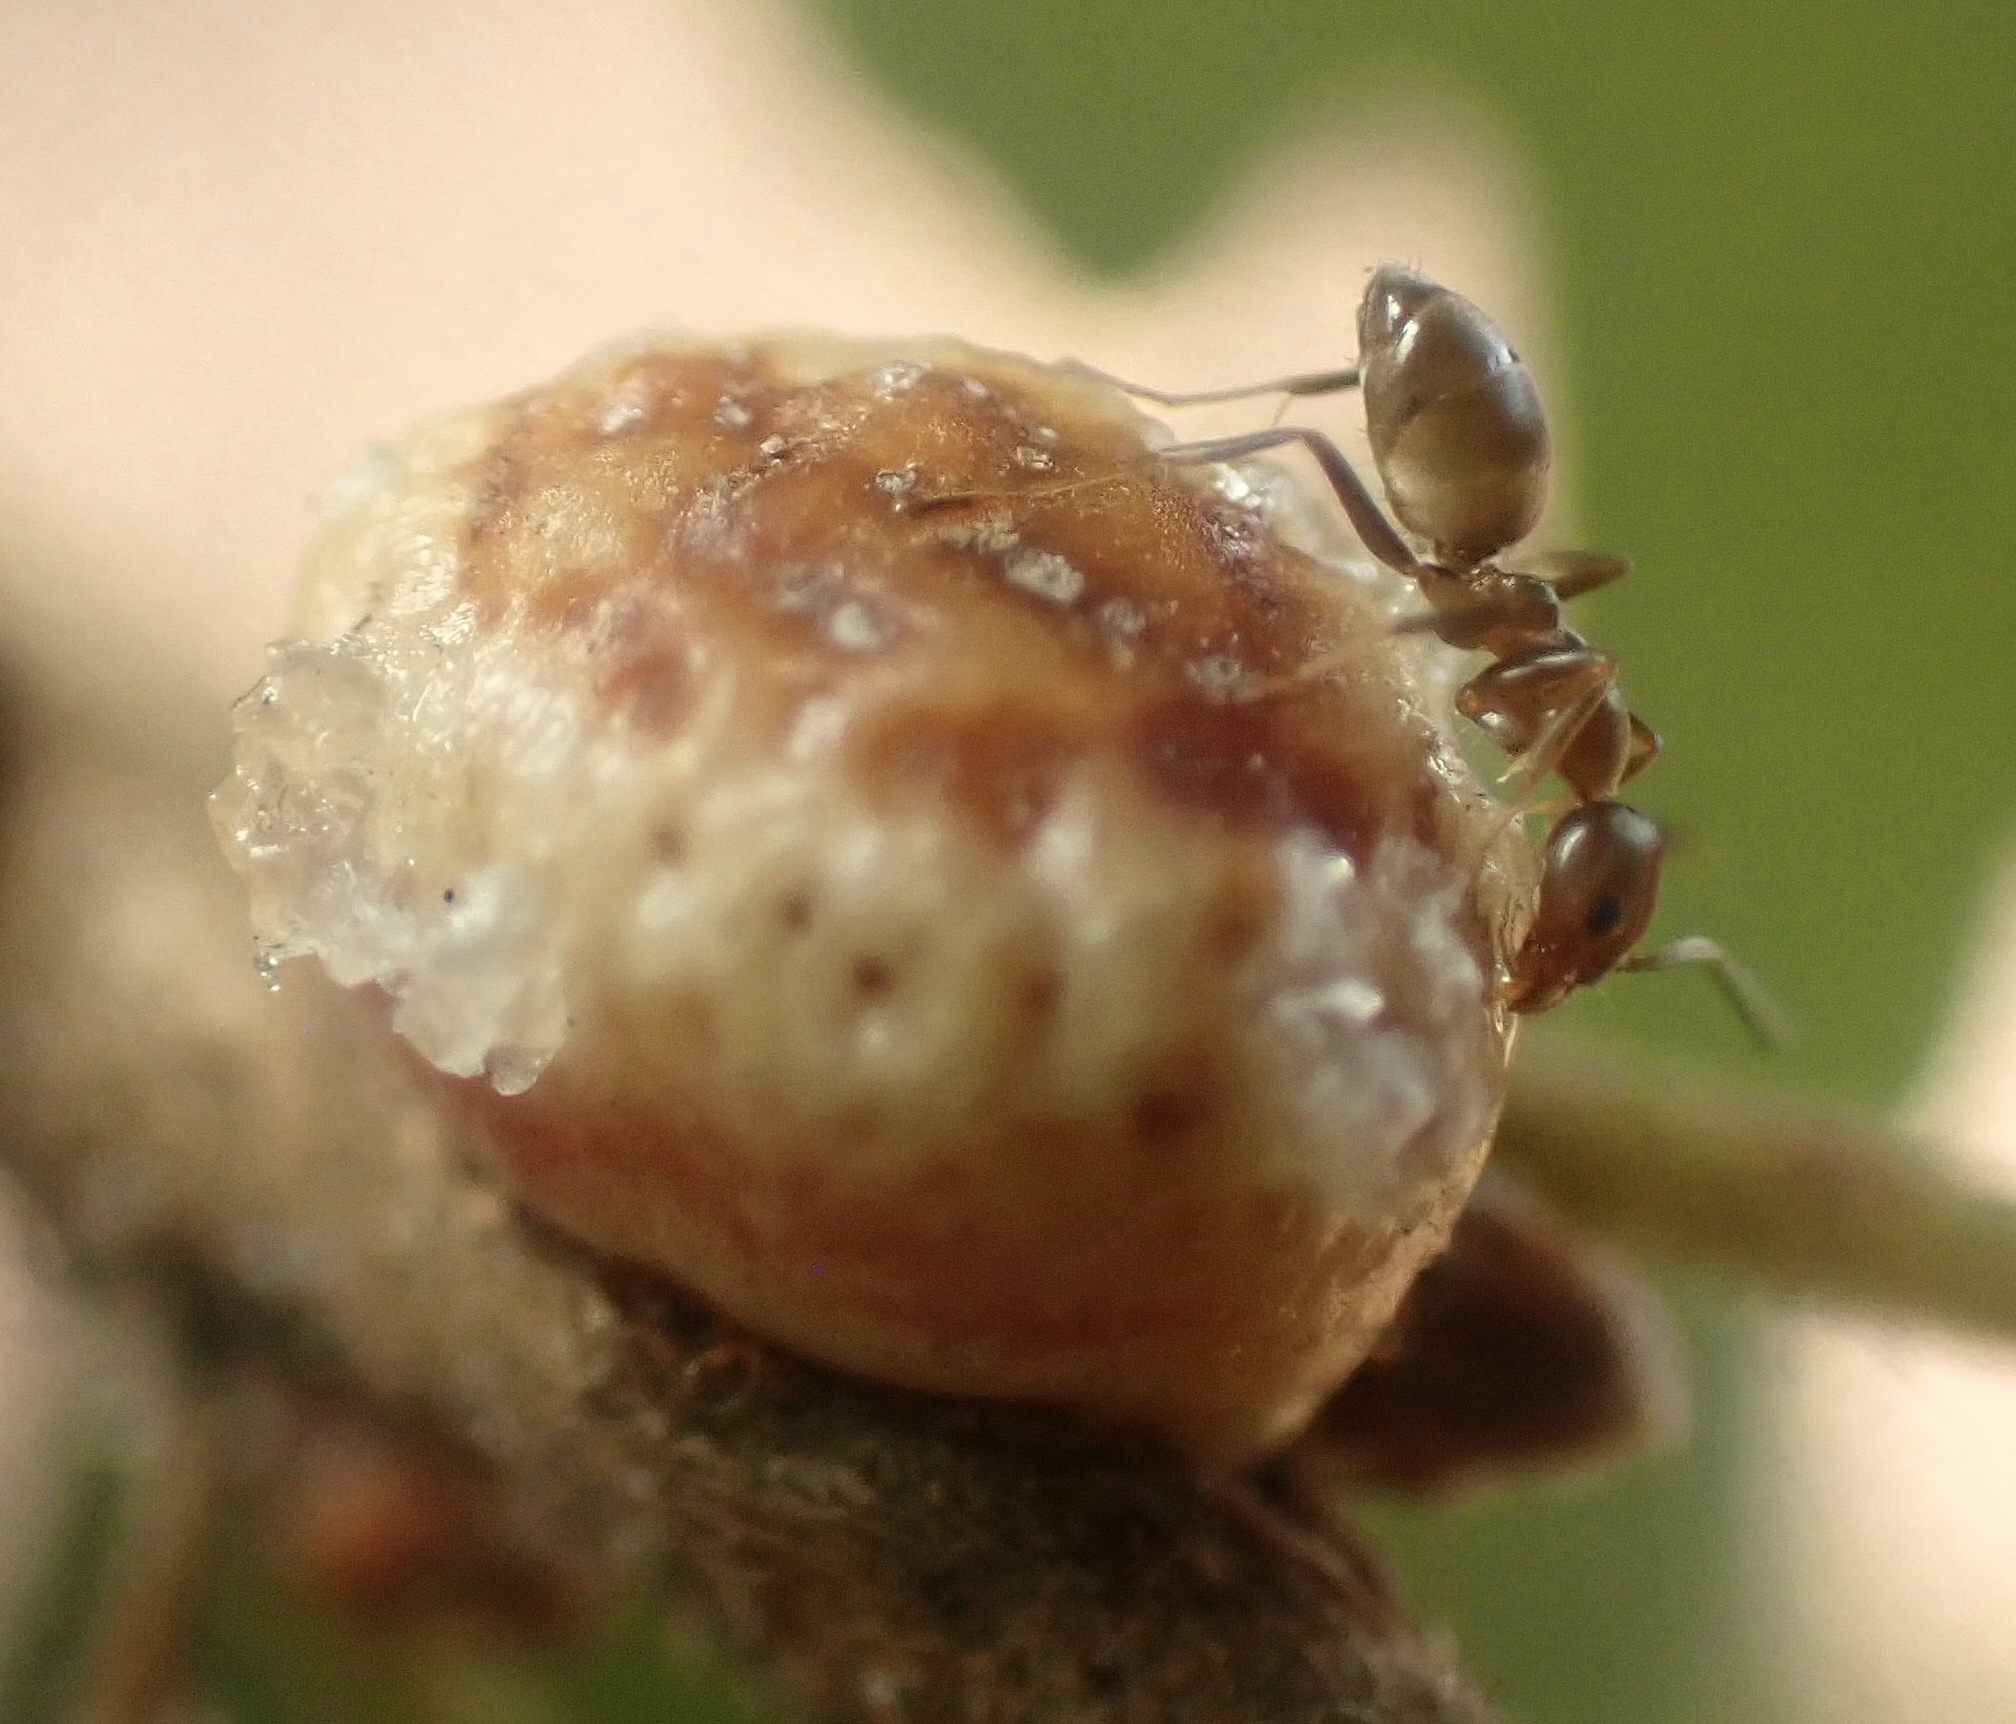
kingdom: Animalia
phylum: Arthropoda
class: Insecta
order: Hymenoptera
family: Cynipidae
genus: Disholcaspis
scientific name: Disholcaspis
